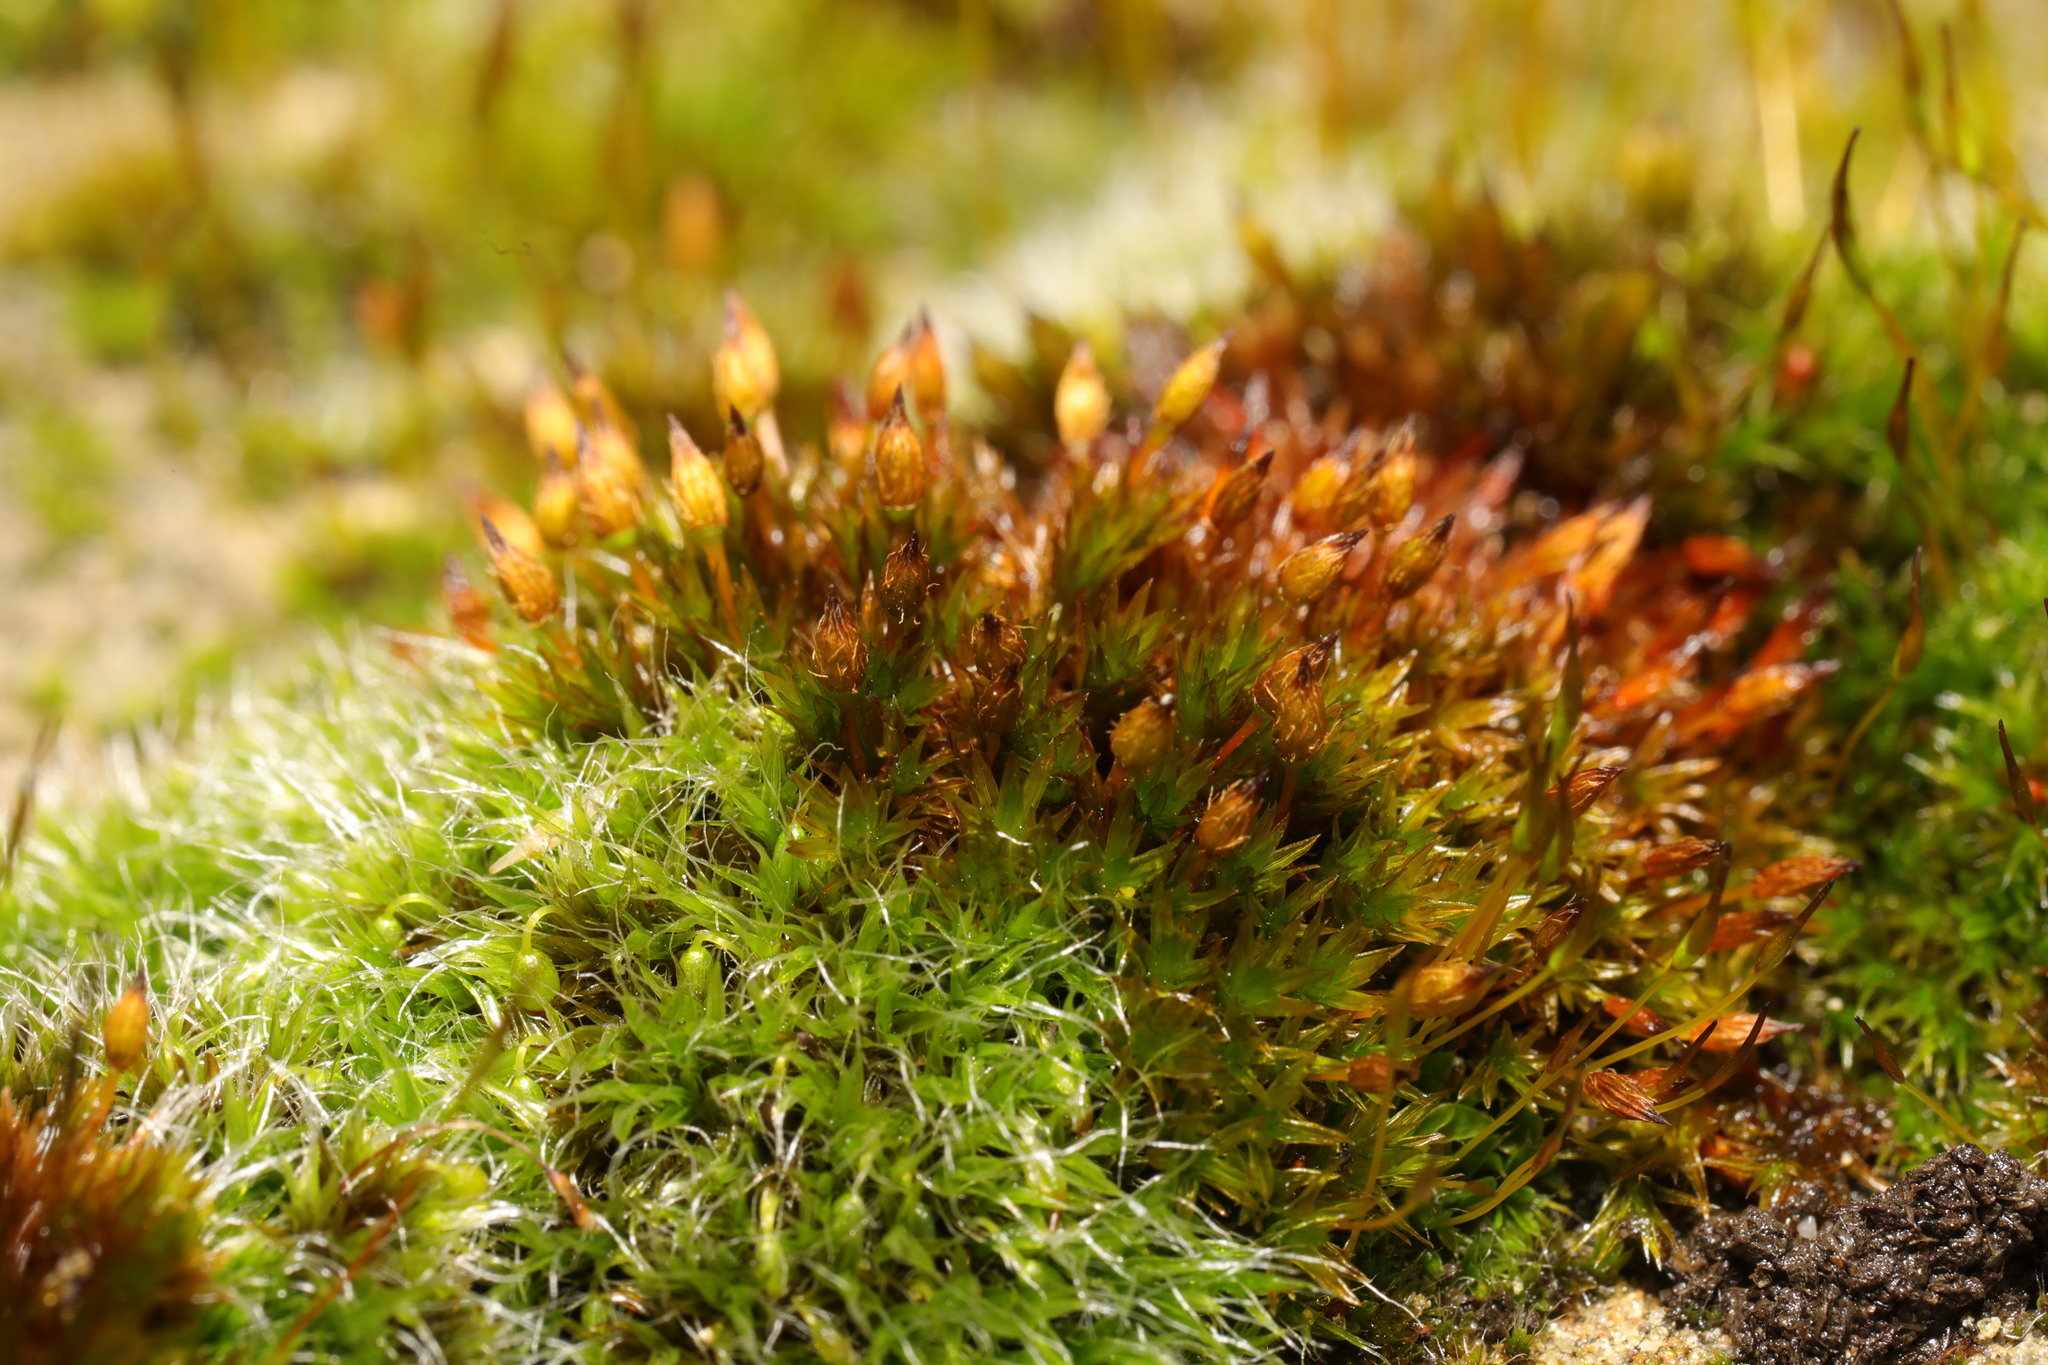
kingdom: Plantae
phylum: Bryophyta
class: Bryopsida
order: Orthotrichales
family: Orthotrichaceae
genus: Orthotrichum
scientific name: Orthotrichum anomalum
